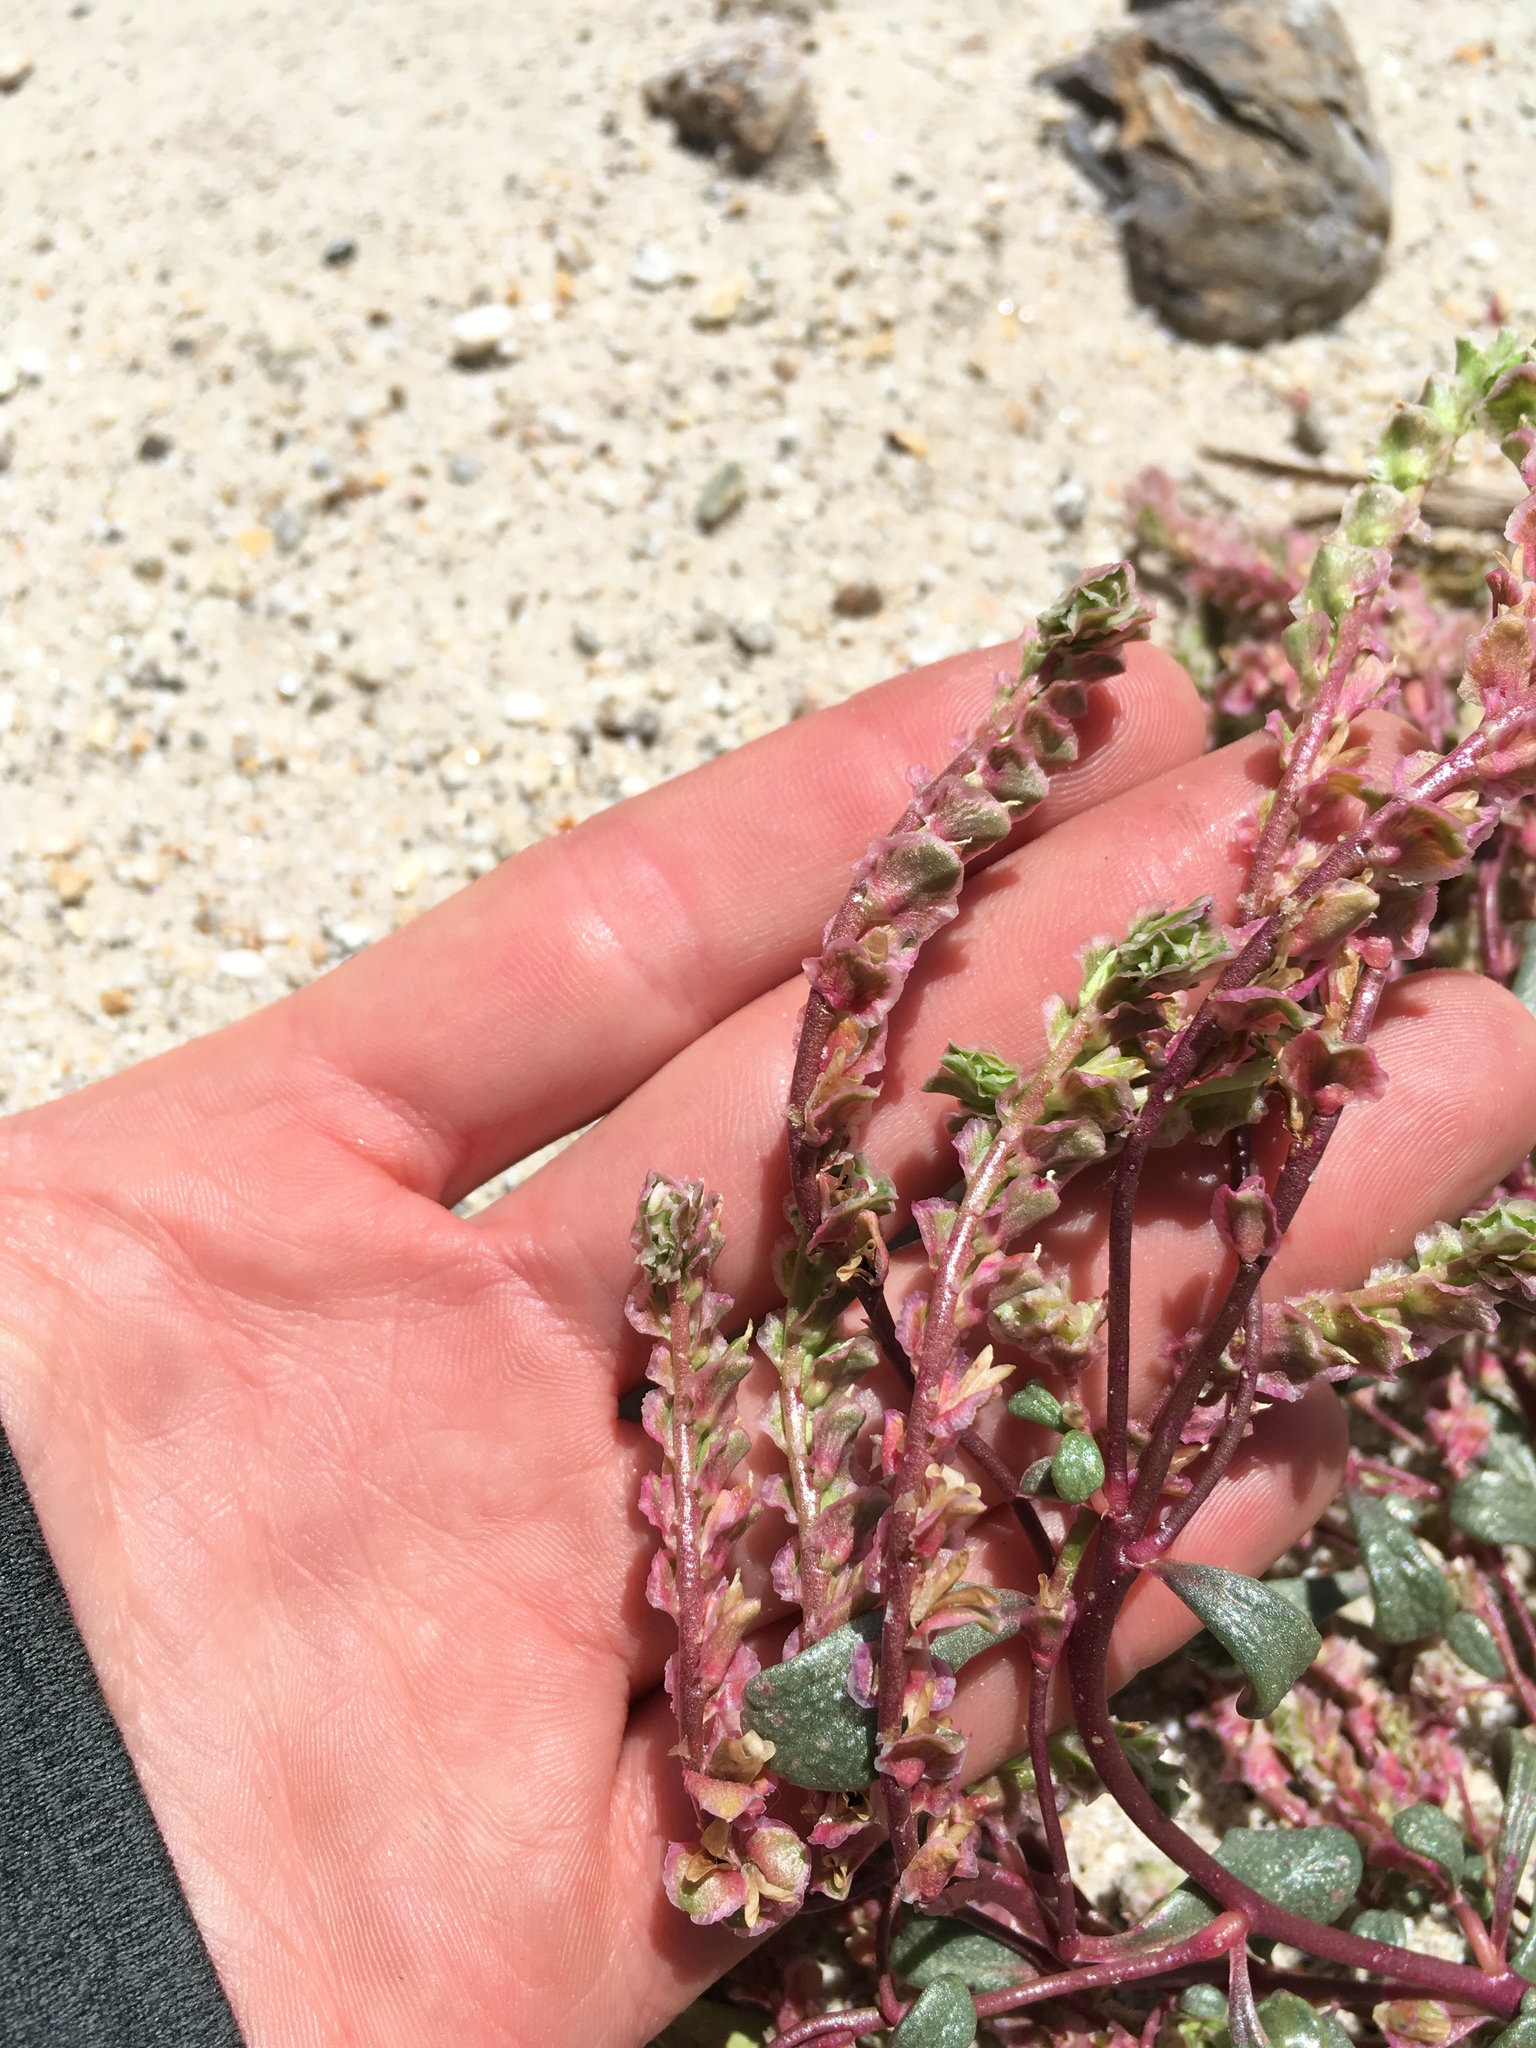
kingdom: Plantae
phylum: Tracheophyta
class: Magnoliopsida
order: Caryophyllales
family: Montiaceae
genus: Calyptridium
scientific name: Calyptridium nevadense
